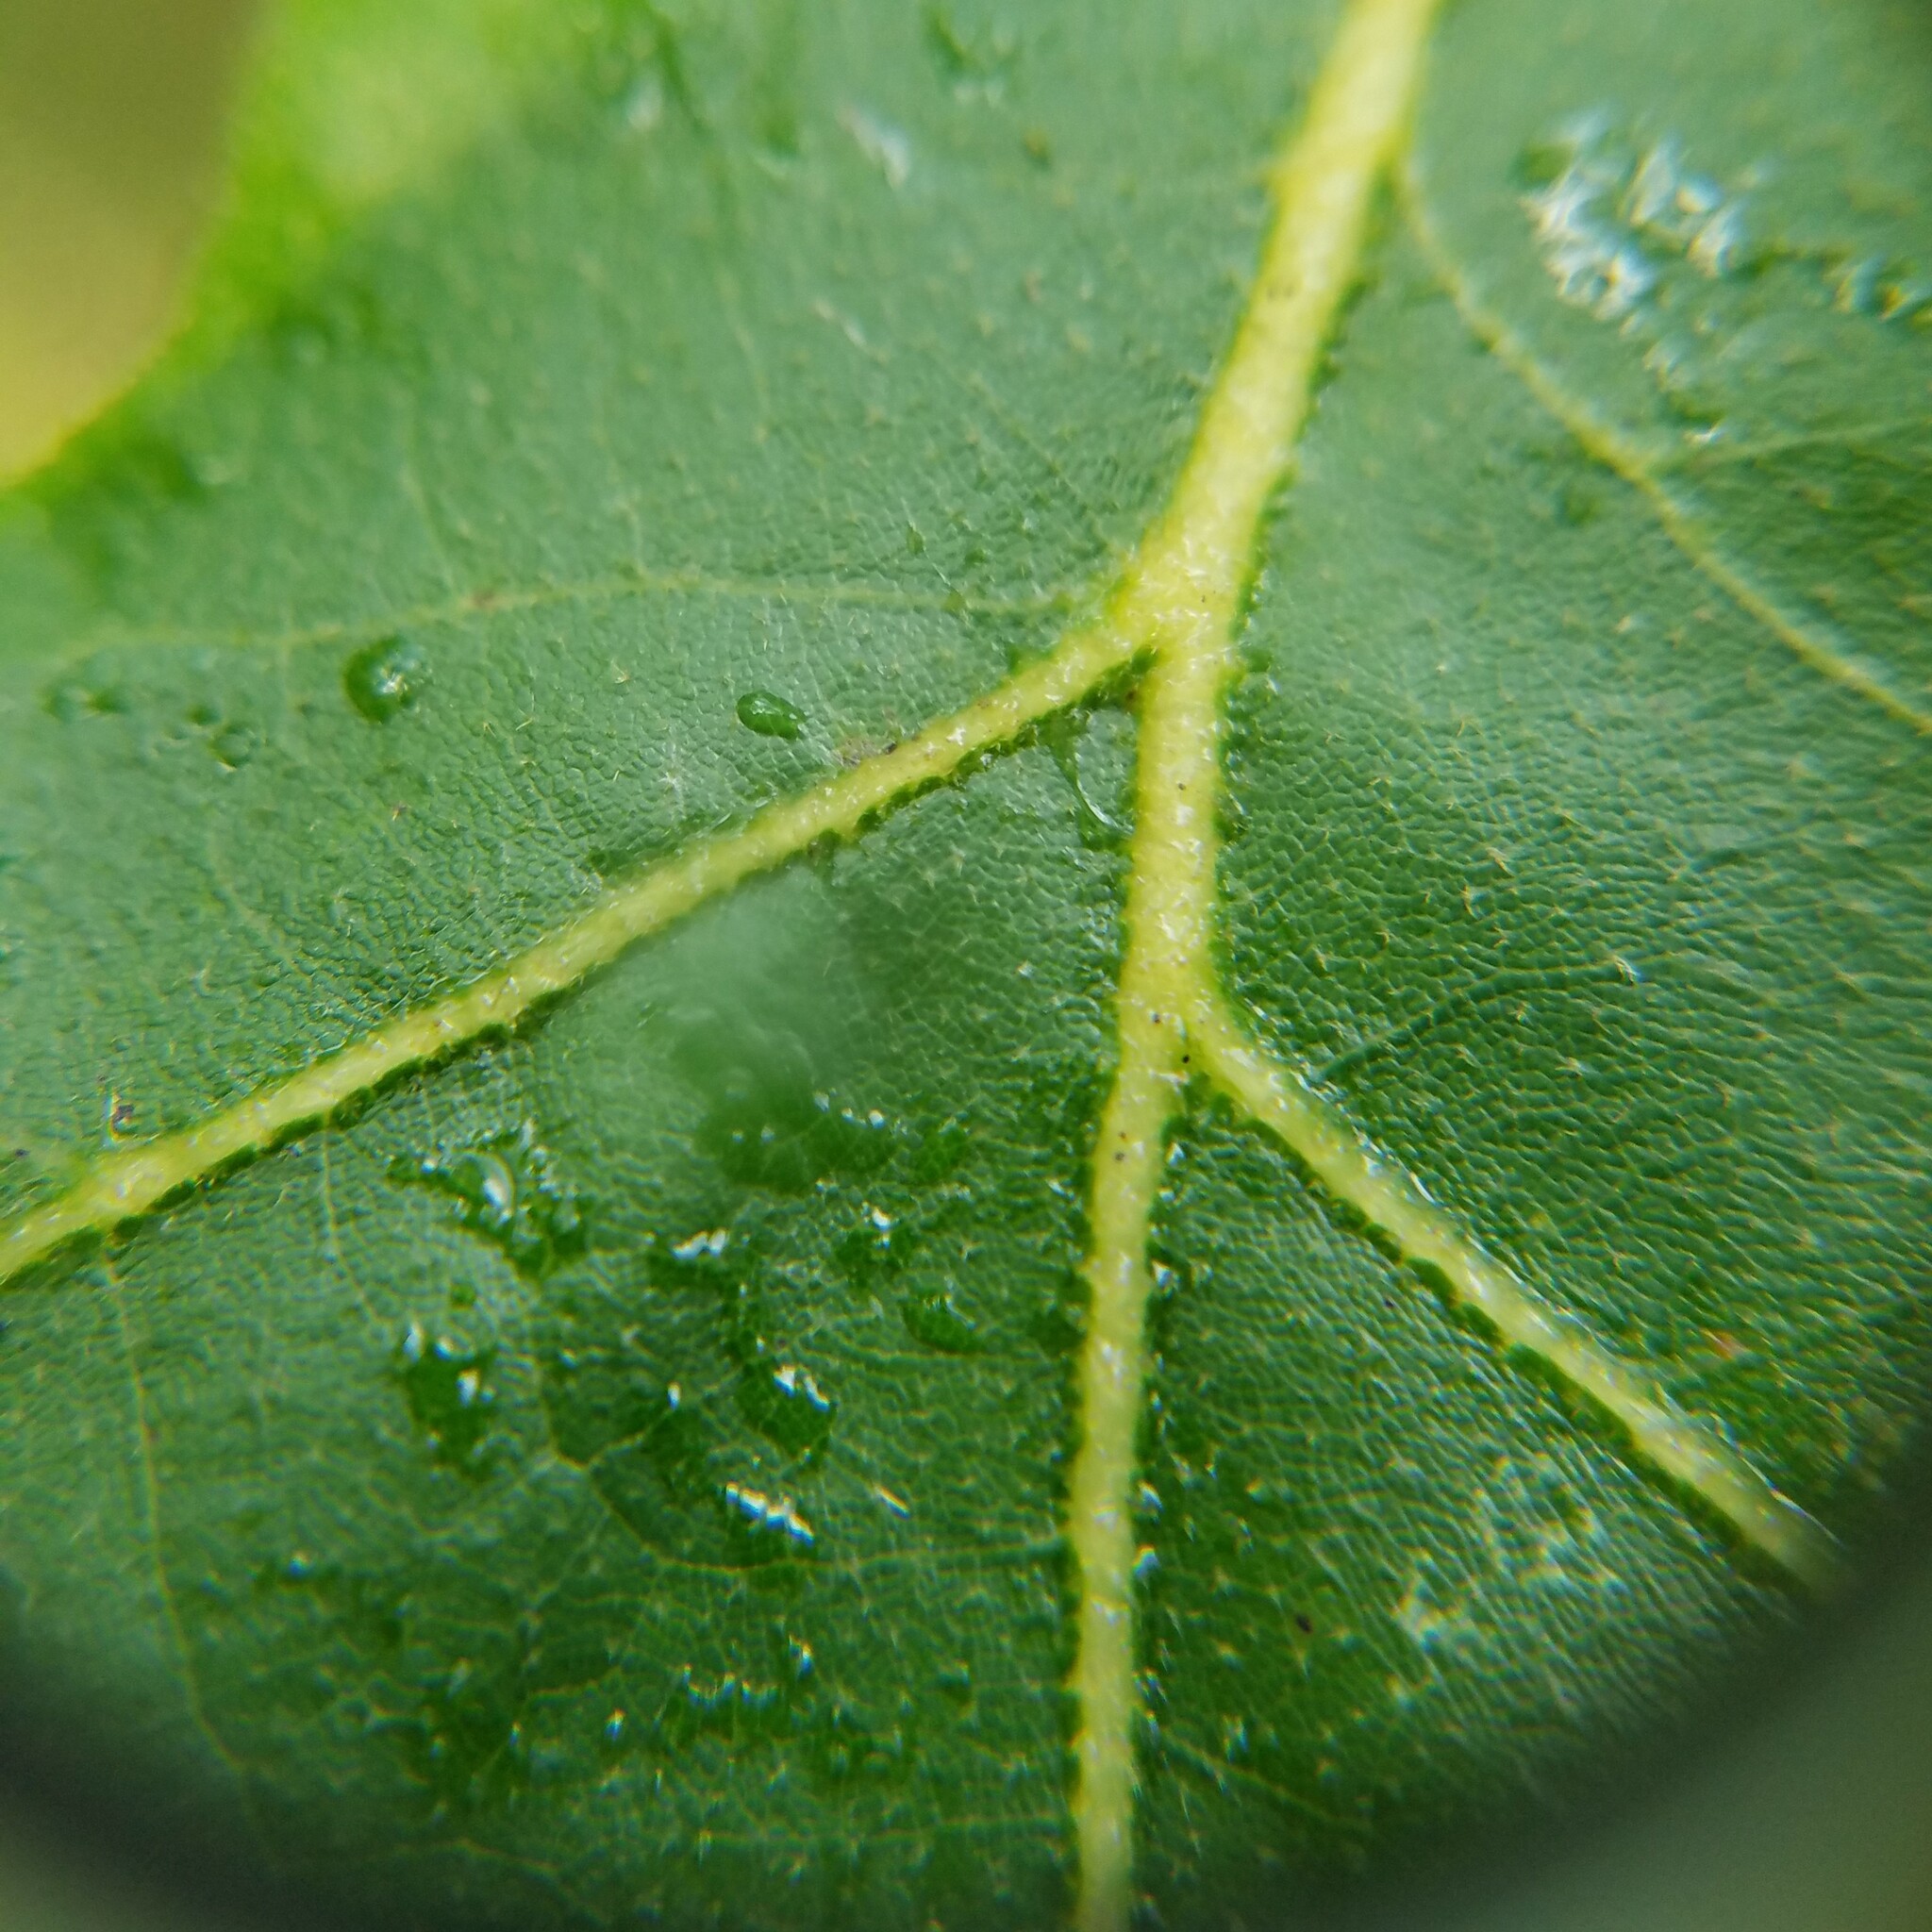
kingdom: Plantae
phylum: Tracheophyta
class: Magnoliopsida
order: Fagales
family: Fagaceae
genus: Quercus
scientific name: Quercus stellata
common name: Post oak
